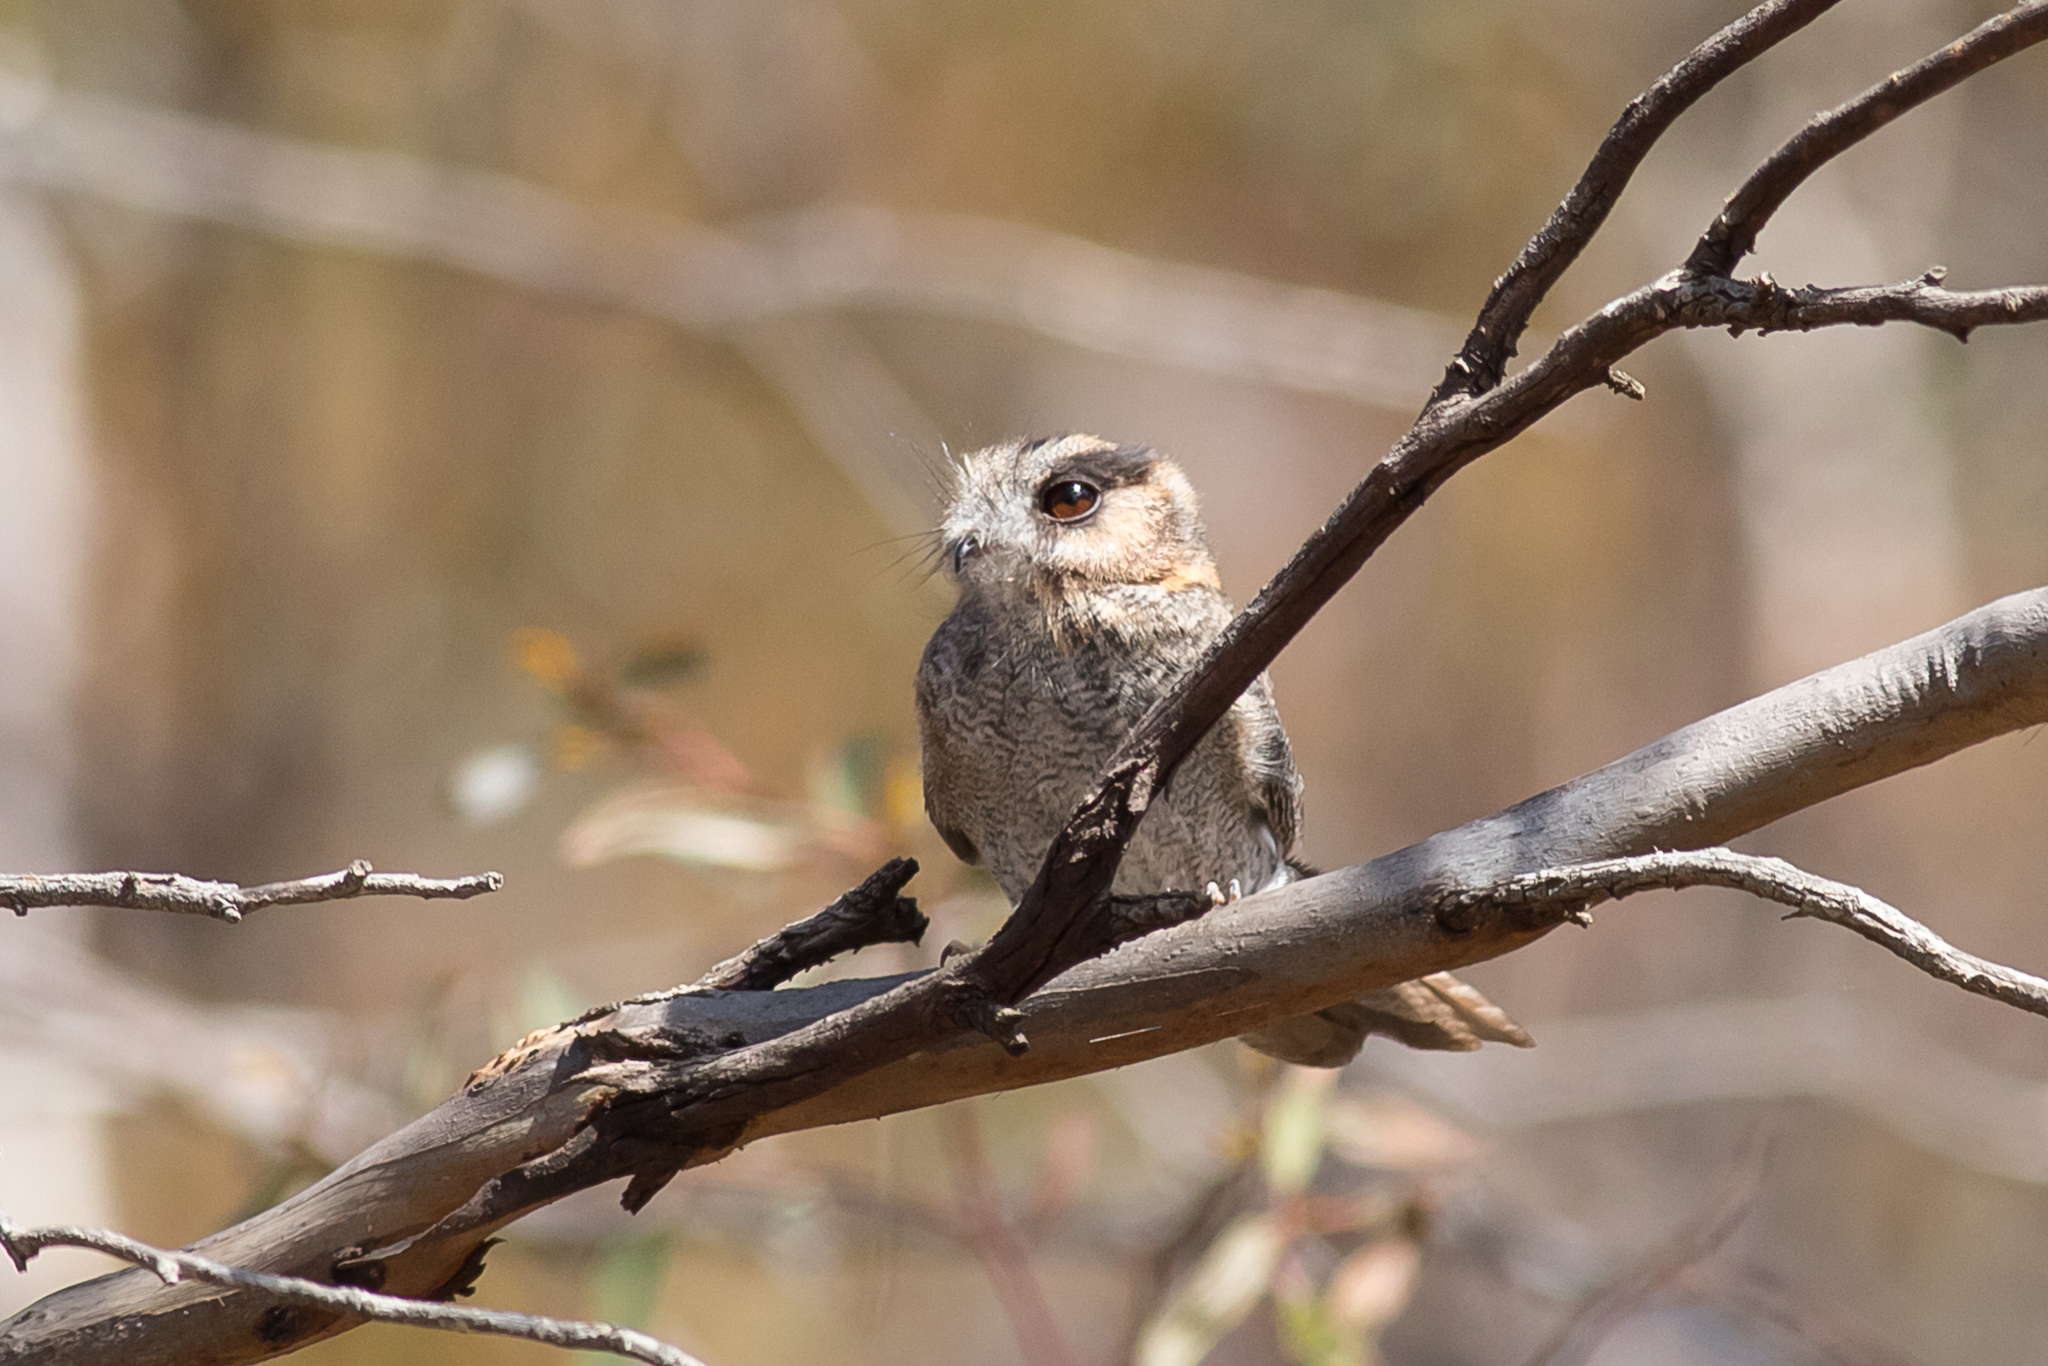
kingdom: Animalia
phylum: Chordata
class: Aves
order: Apodiformes
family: Aegothelidae
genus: Aegotheles
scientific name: Aegotheles cristatus
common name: Australian owlet-nightjar
